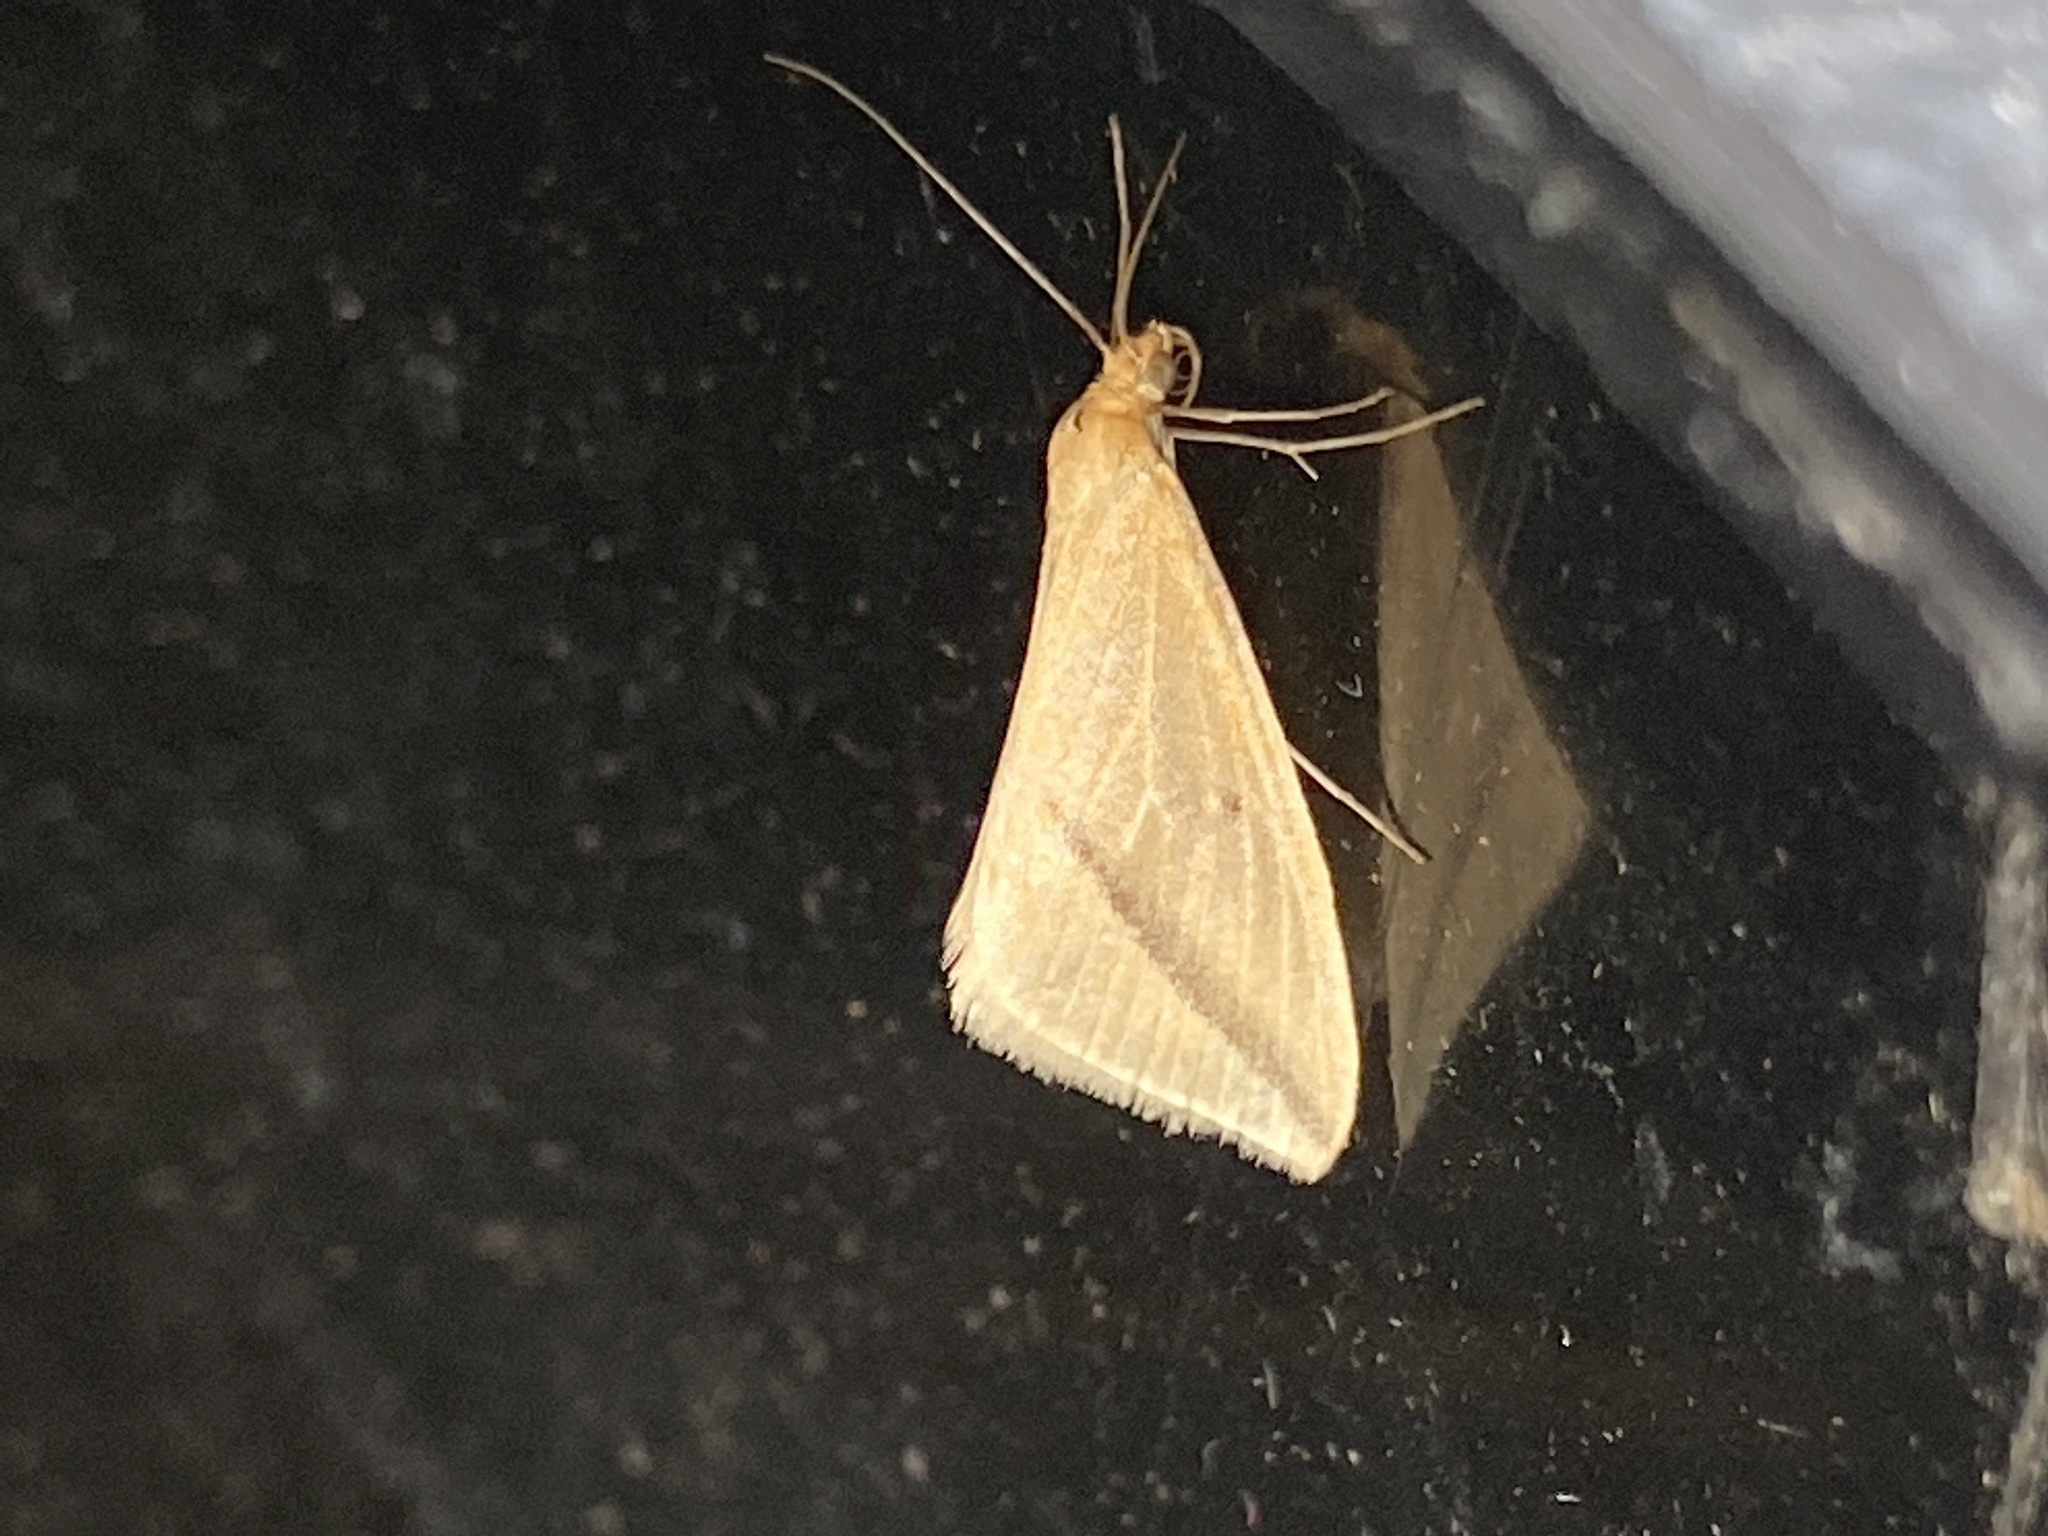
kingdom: Animalia
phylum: Arthropoda
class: Insecta
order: Lepidoptera
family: Geometridae
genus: Rhodometra
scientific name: Rhodometra sacraria
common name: Vestal
